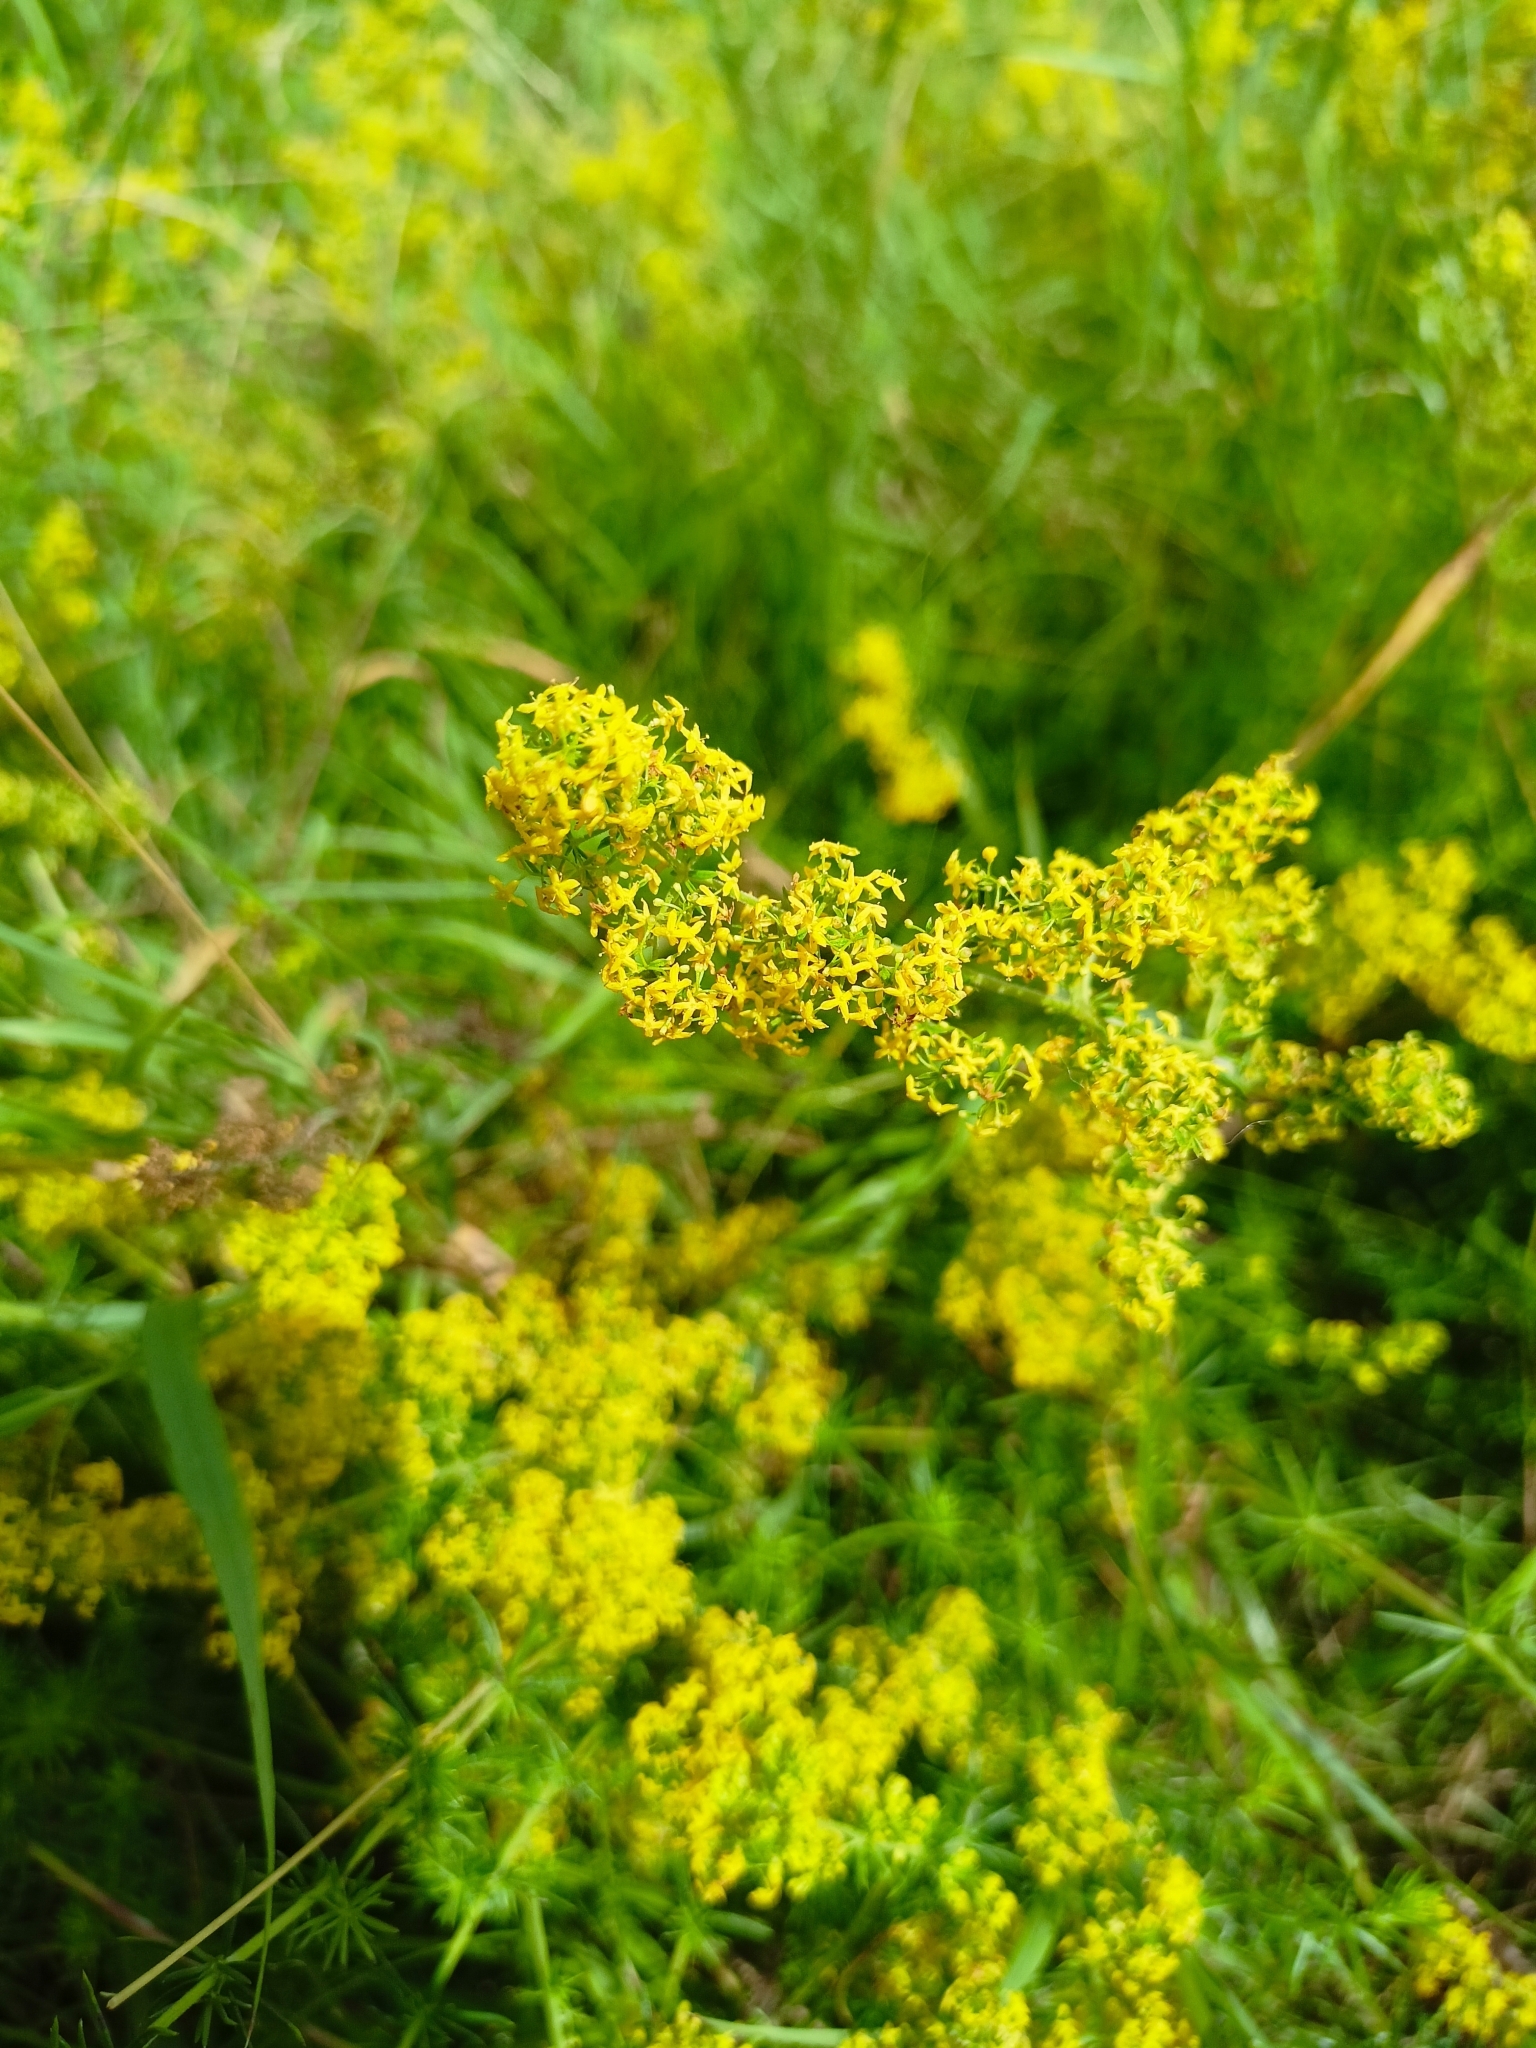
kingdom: Plantae
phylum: Tracheophyta
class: Magnoliopsida
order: Gentianales
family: Rubiaceae
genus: Galium
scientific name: Galium verum
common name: Lady's bedstraw
